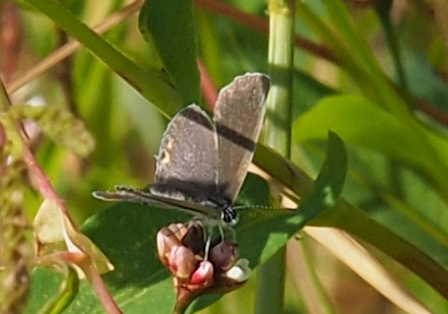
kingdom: Animalia
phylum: Arthropoda
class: Insecta
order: Lepidoptera
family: Lycaenidae
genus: Elkalyce
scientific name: Elkalyce comyntas
